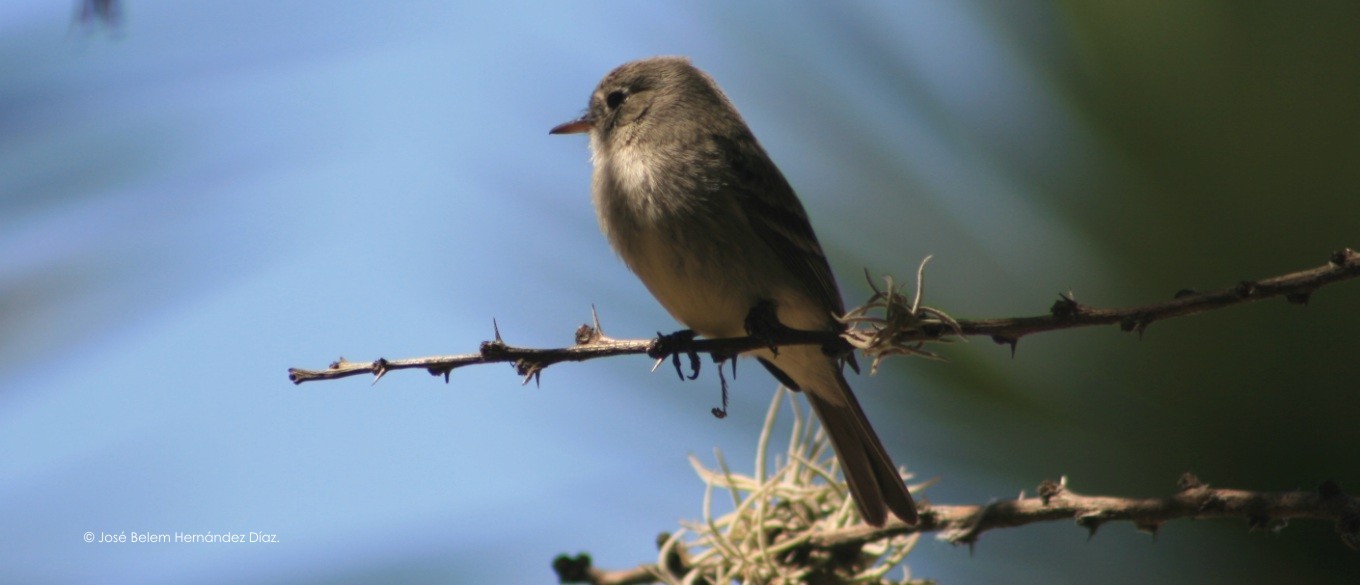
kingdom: Animalia
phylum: Chordata
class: Aves
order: Passeriformes
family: Tyrannidae
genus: Empidonax
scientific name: Empidonax
